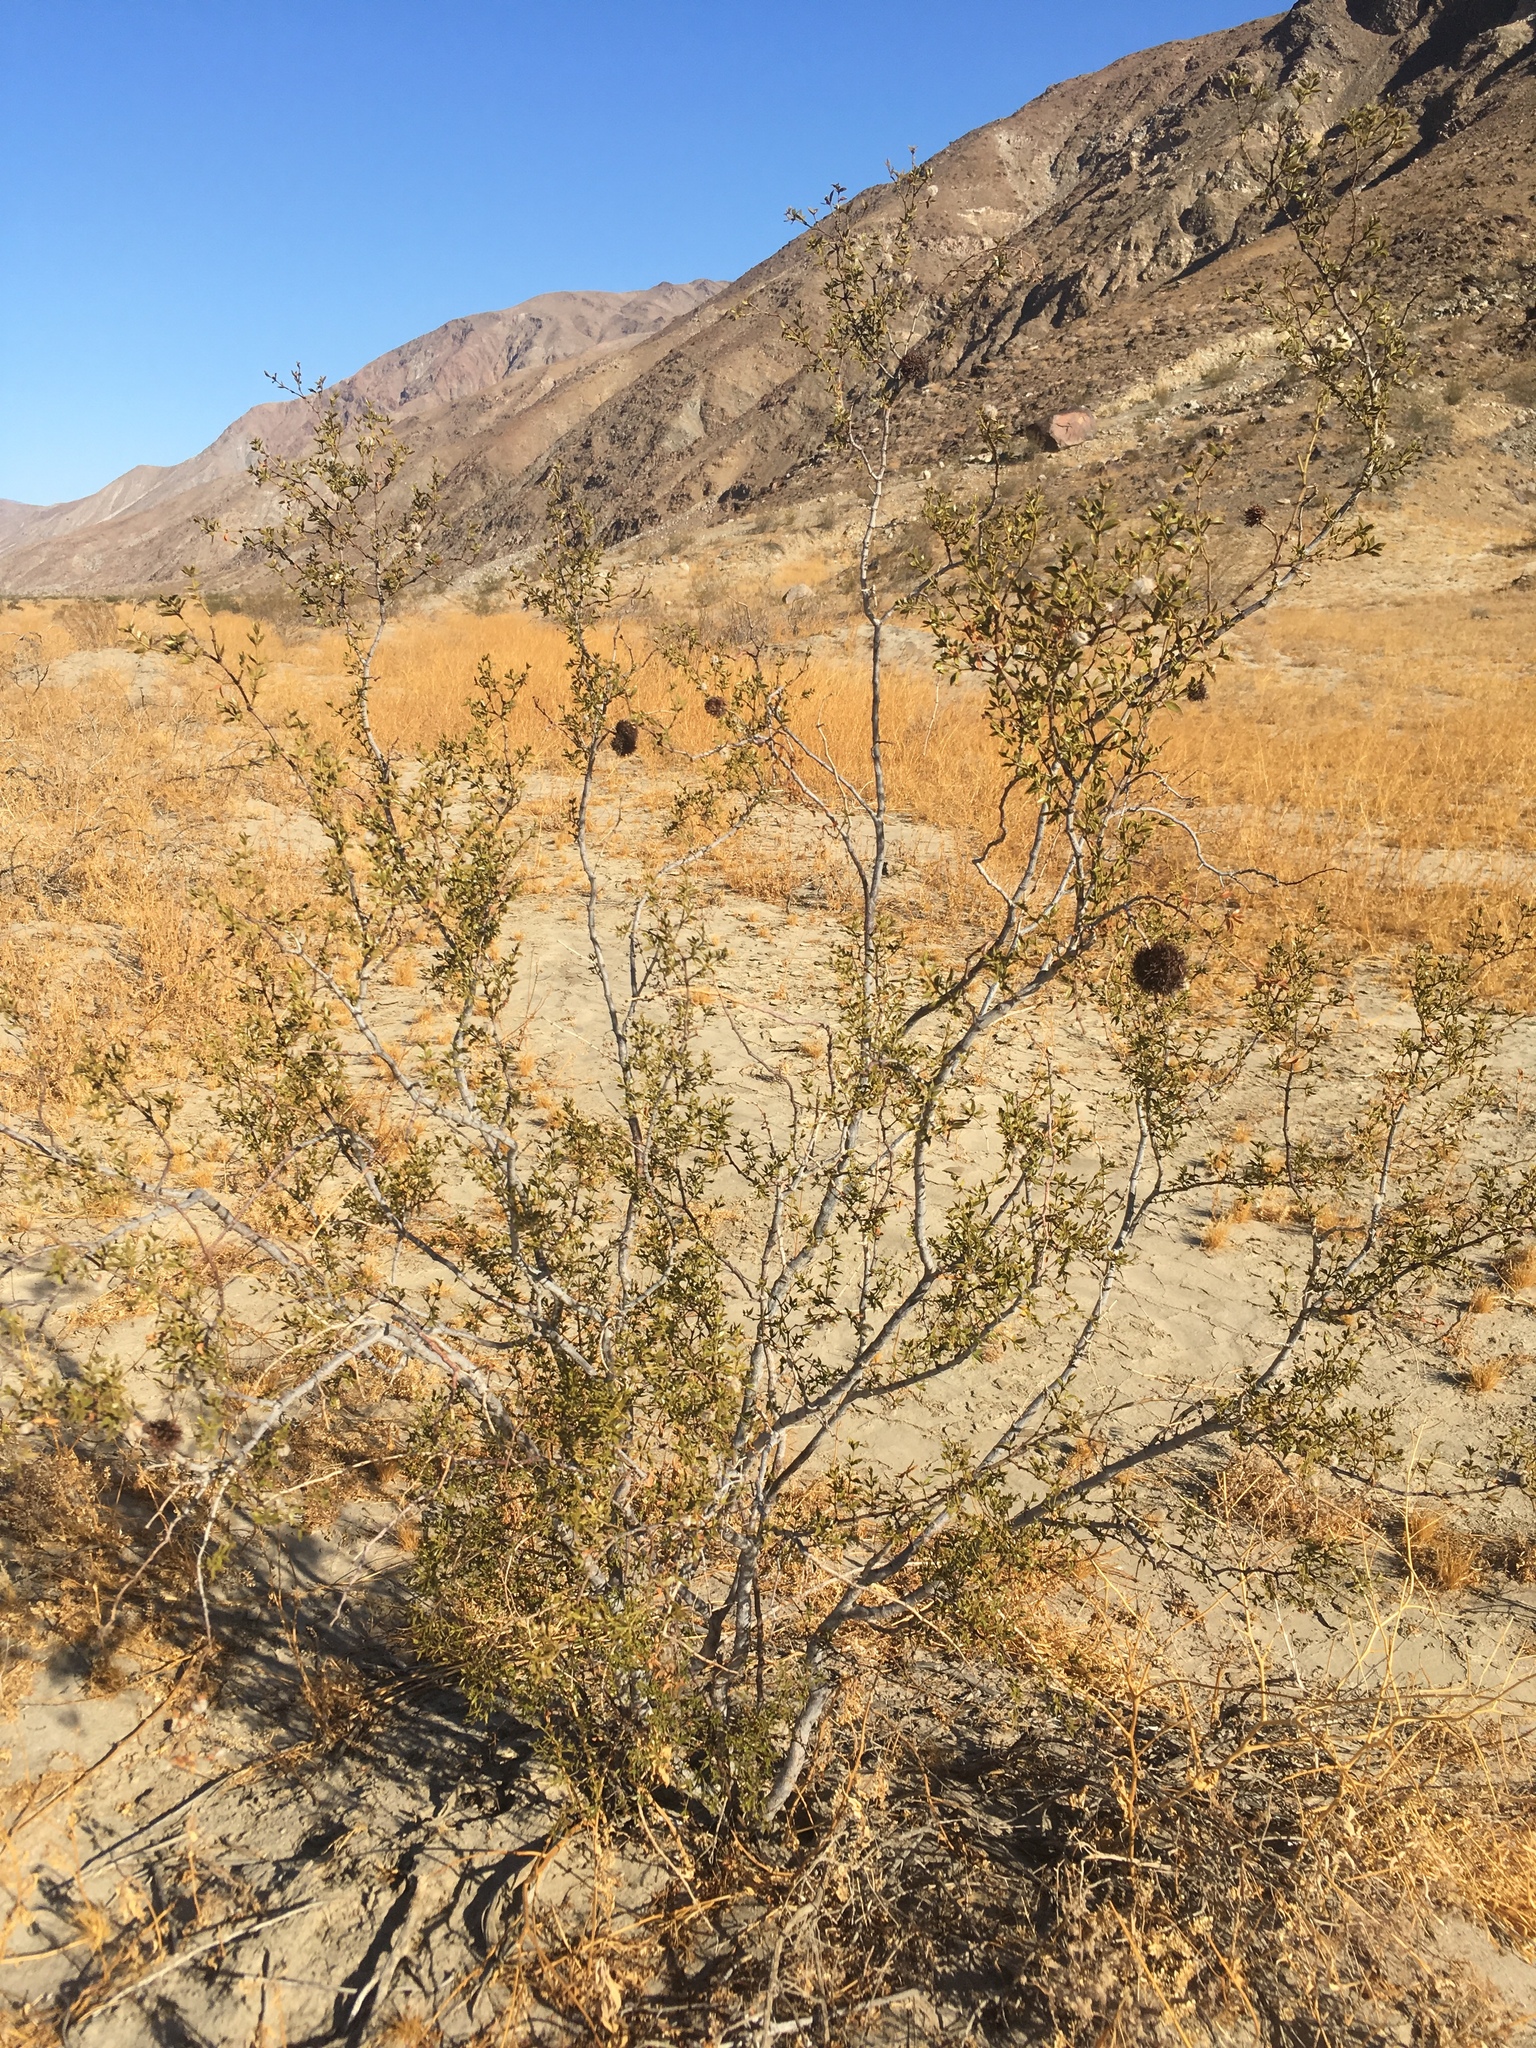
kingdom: Animalia
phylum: Arthropoda
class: Insecta
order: Diptera
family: Cecidomyiidae
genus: Asphondylia
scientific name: Asphondylia auripila
